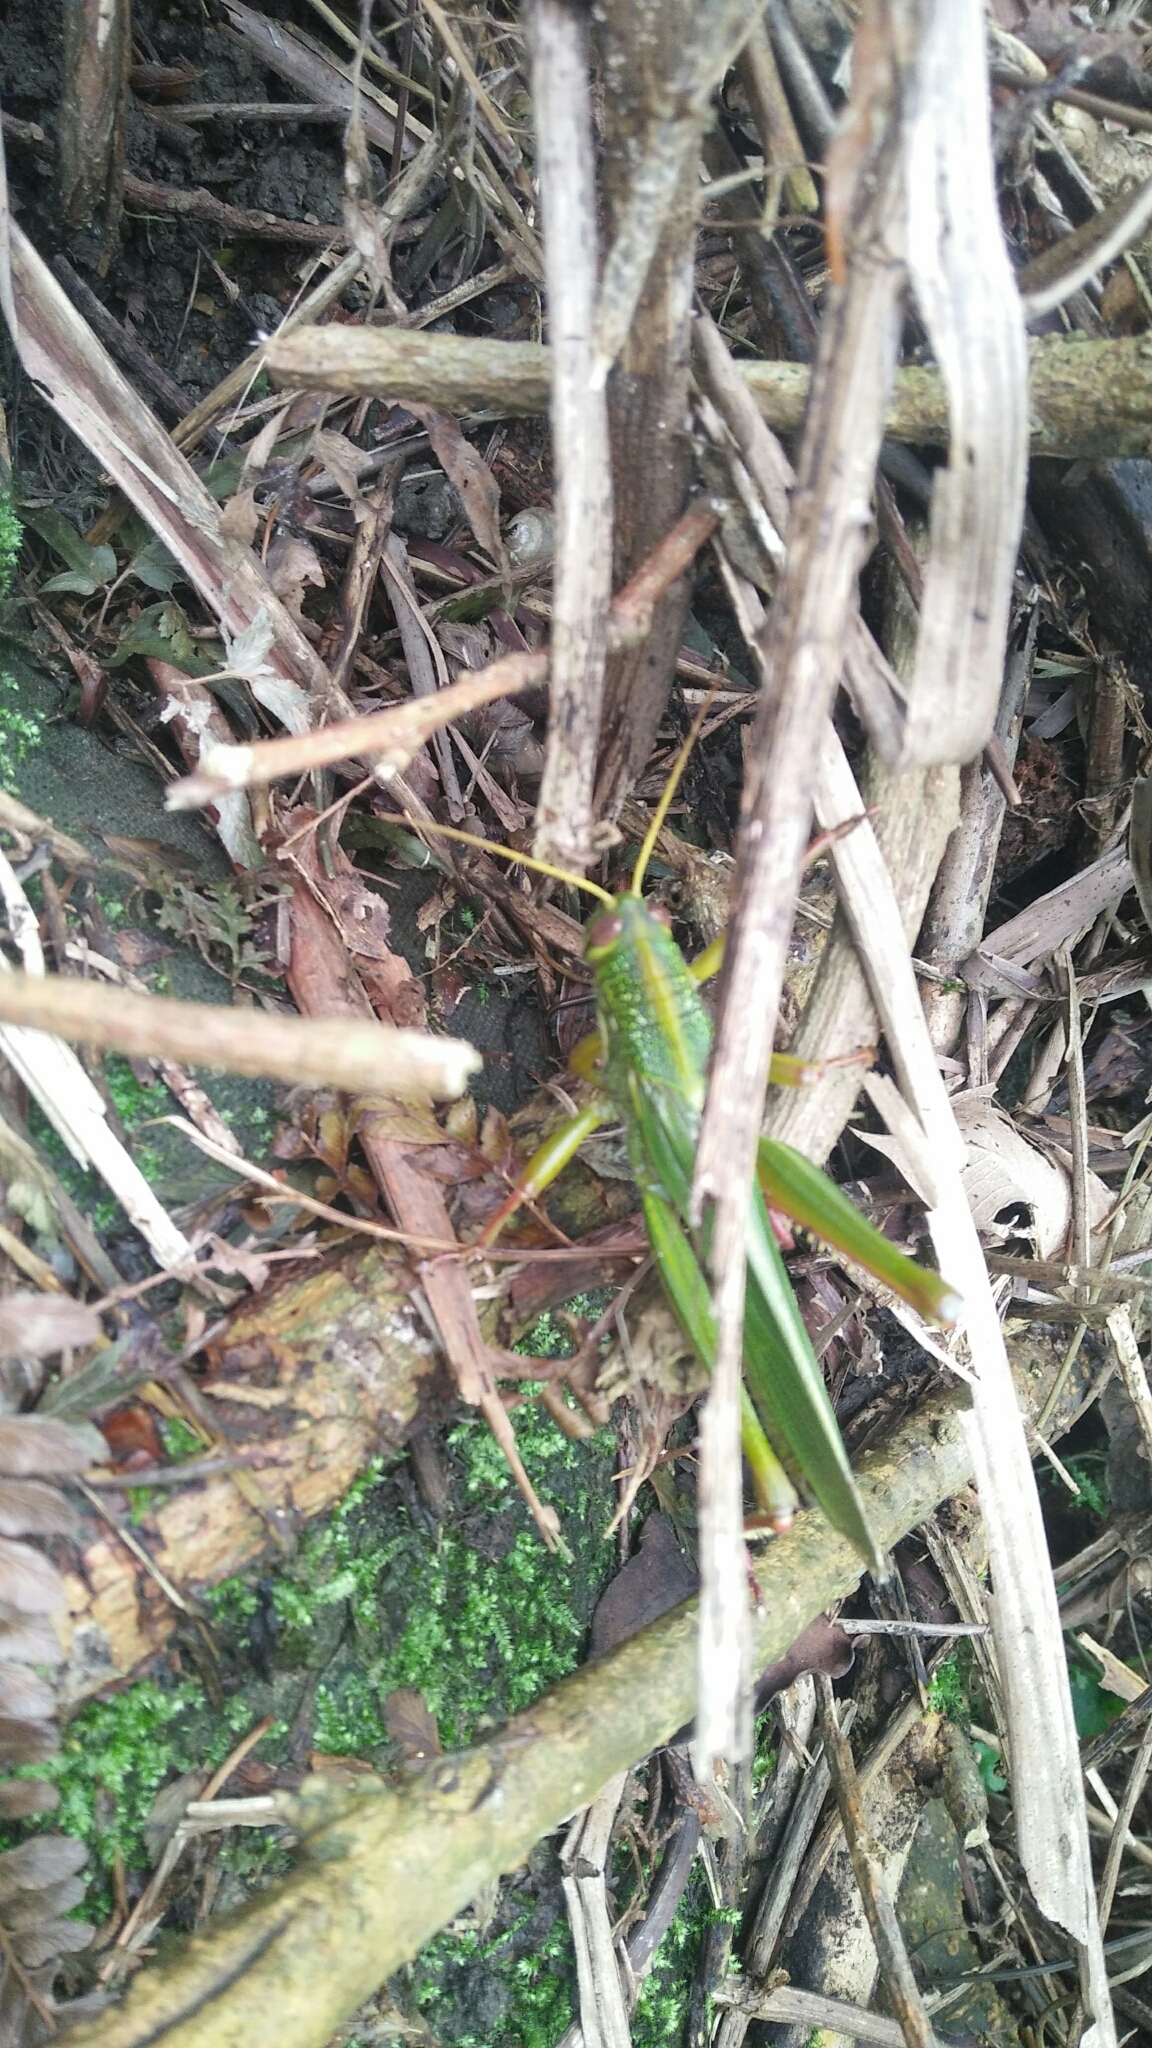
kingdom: Animalia
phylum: Arthropoda
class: Insecta
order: Orthoptera
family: Acrididae
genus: Chondracris
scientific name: Chondracris rosea
